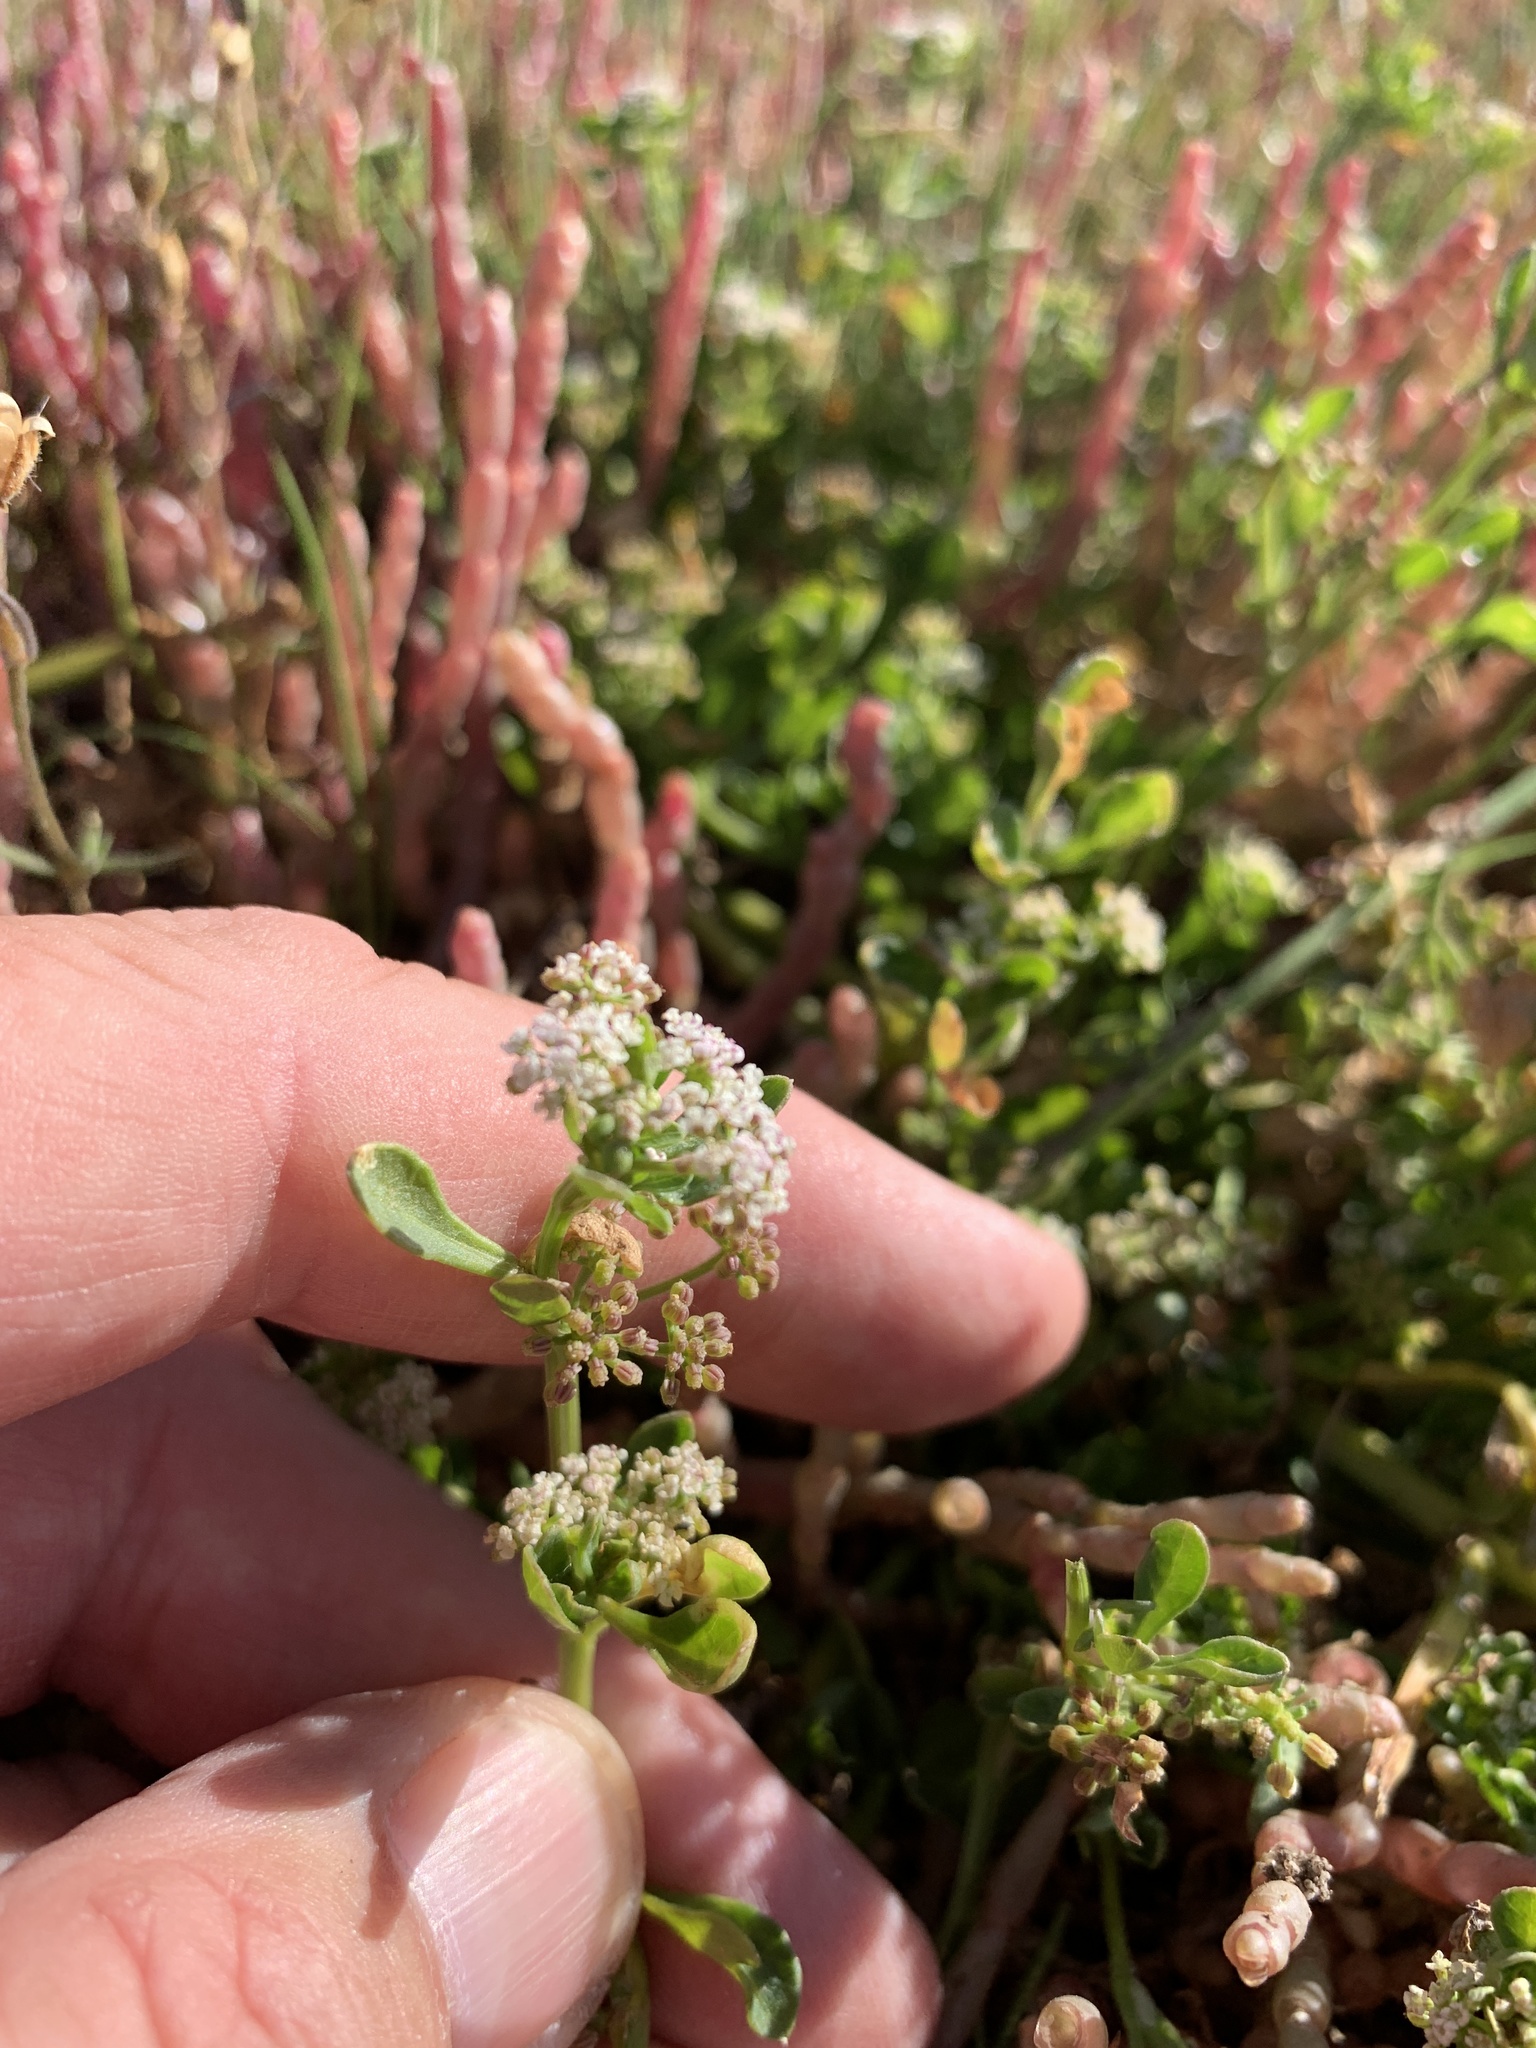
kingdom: Plantae
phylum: Tracheophyta
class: Magnoliopsida
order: Apiales
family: Apiaceae
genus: Apium
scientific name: Apium decumbens
